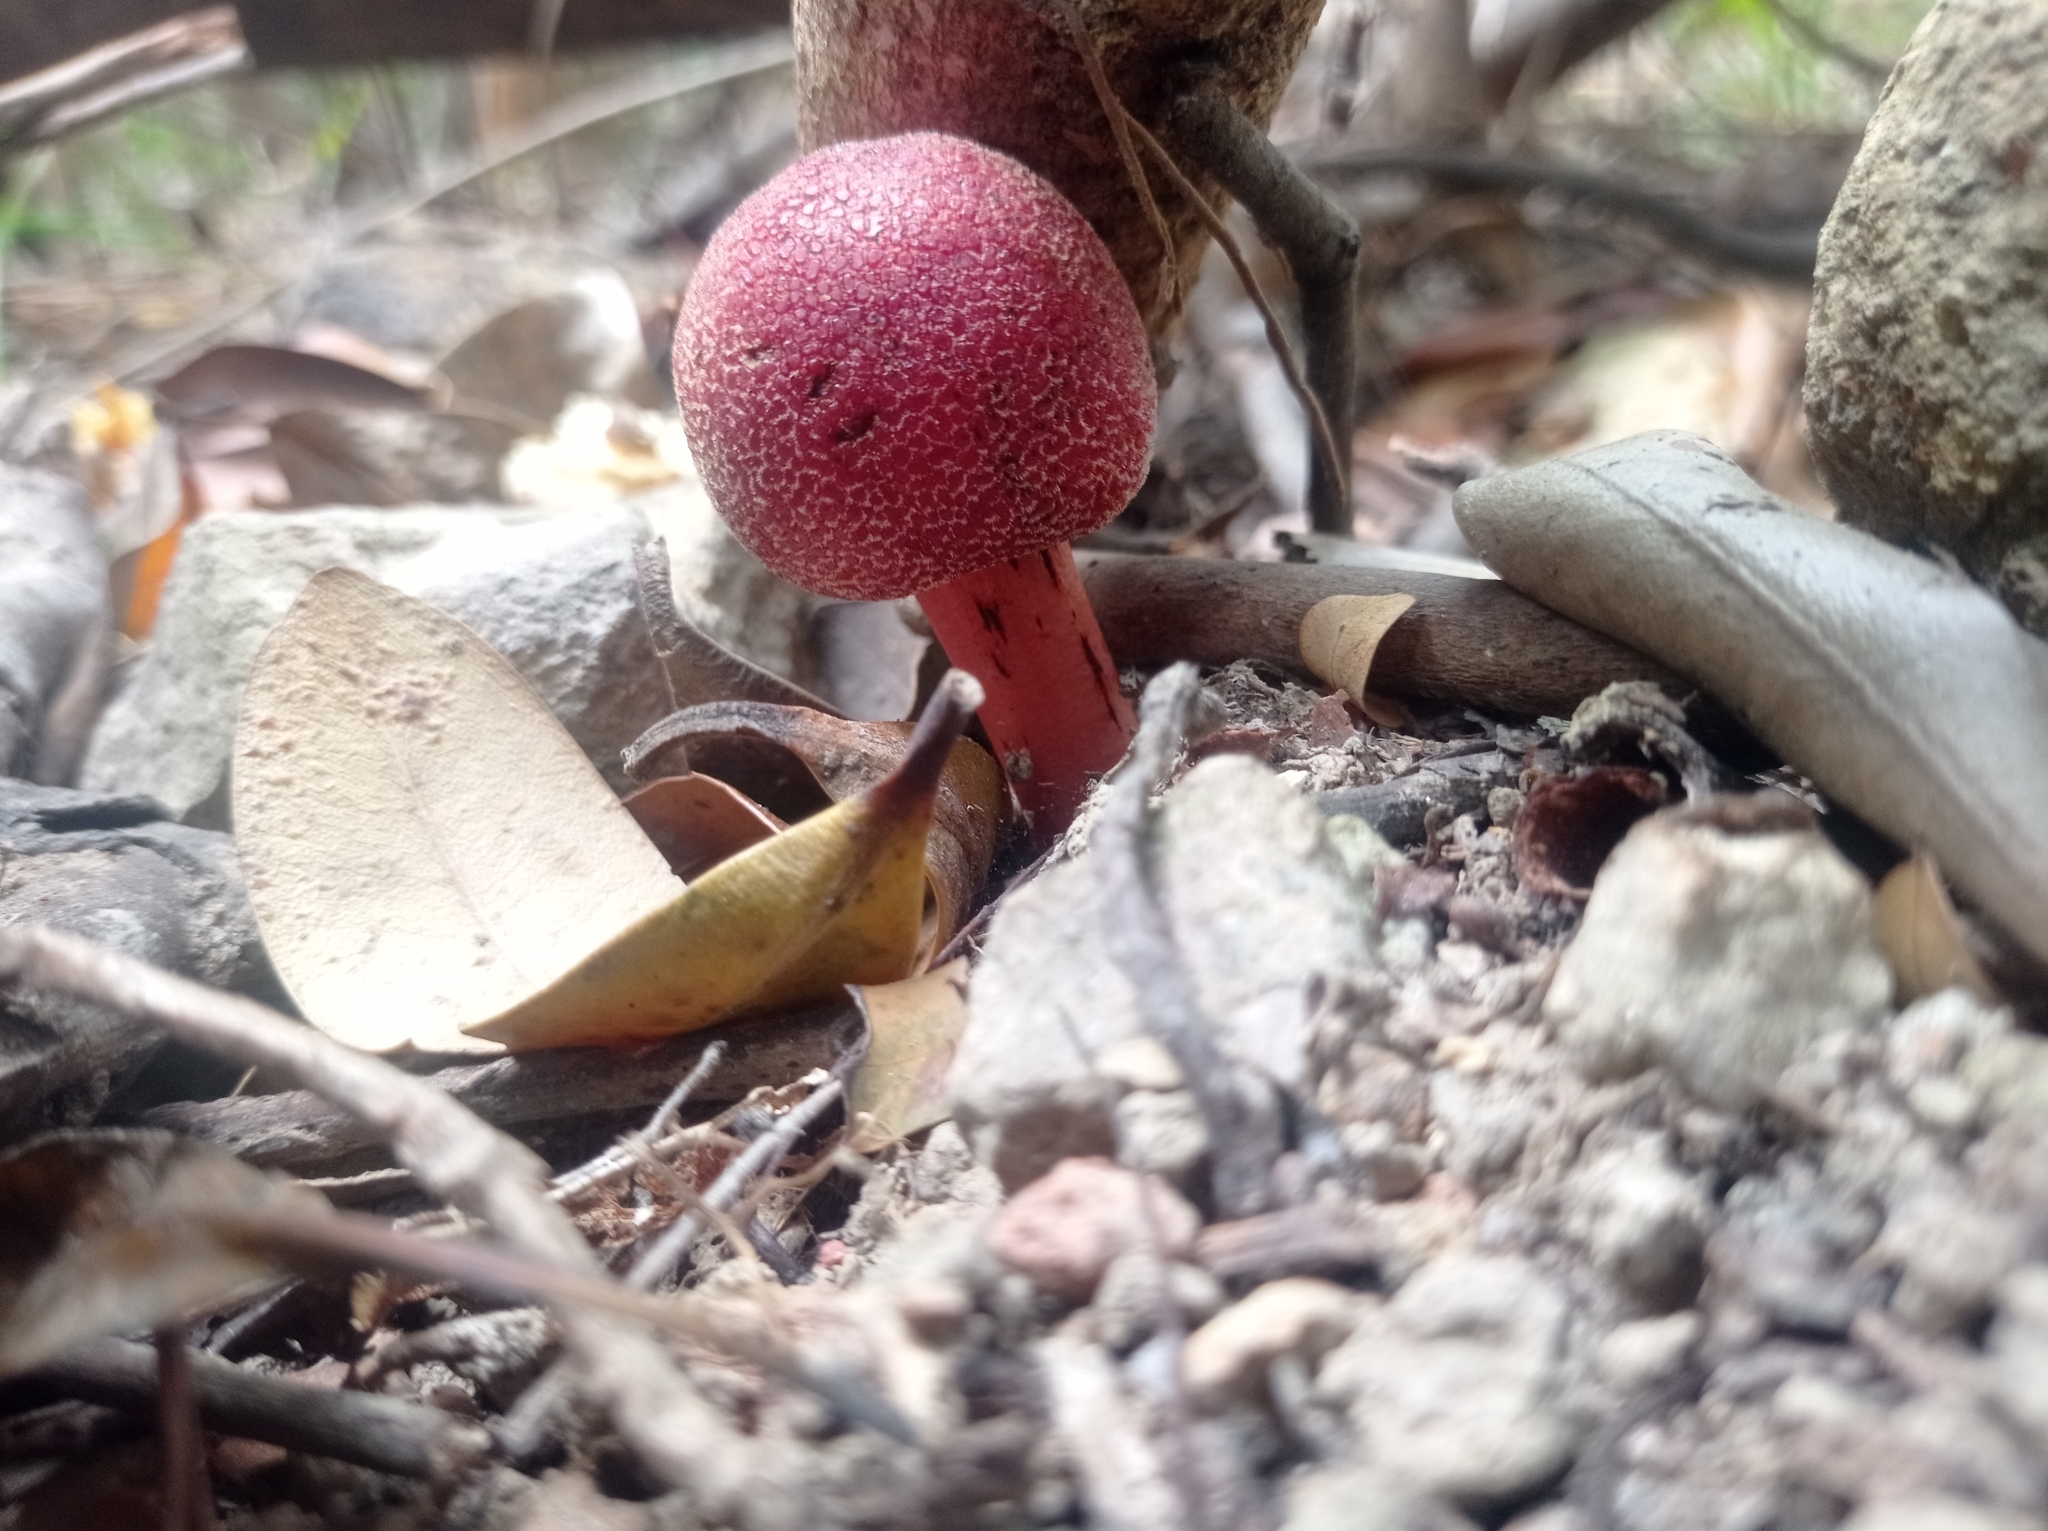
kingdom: Plantae
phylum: Tracheophyta
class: Magnoliopsida
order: Santalales
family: Balanophoraceae
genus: Balanophora
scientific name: Balanophora harlandii
